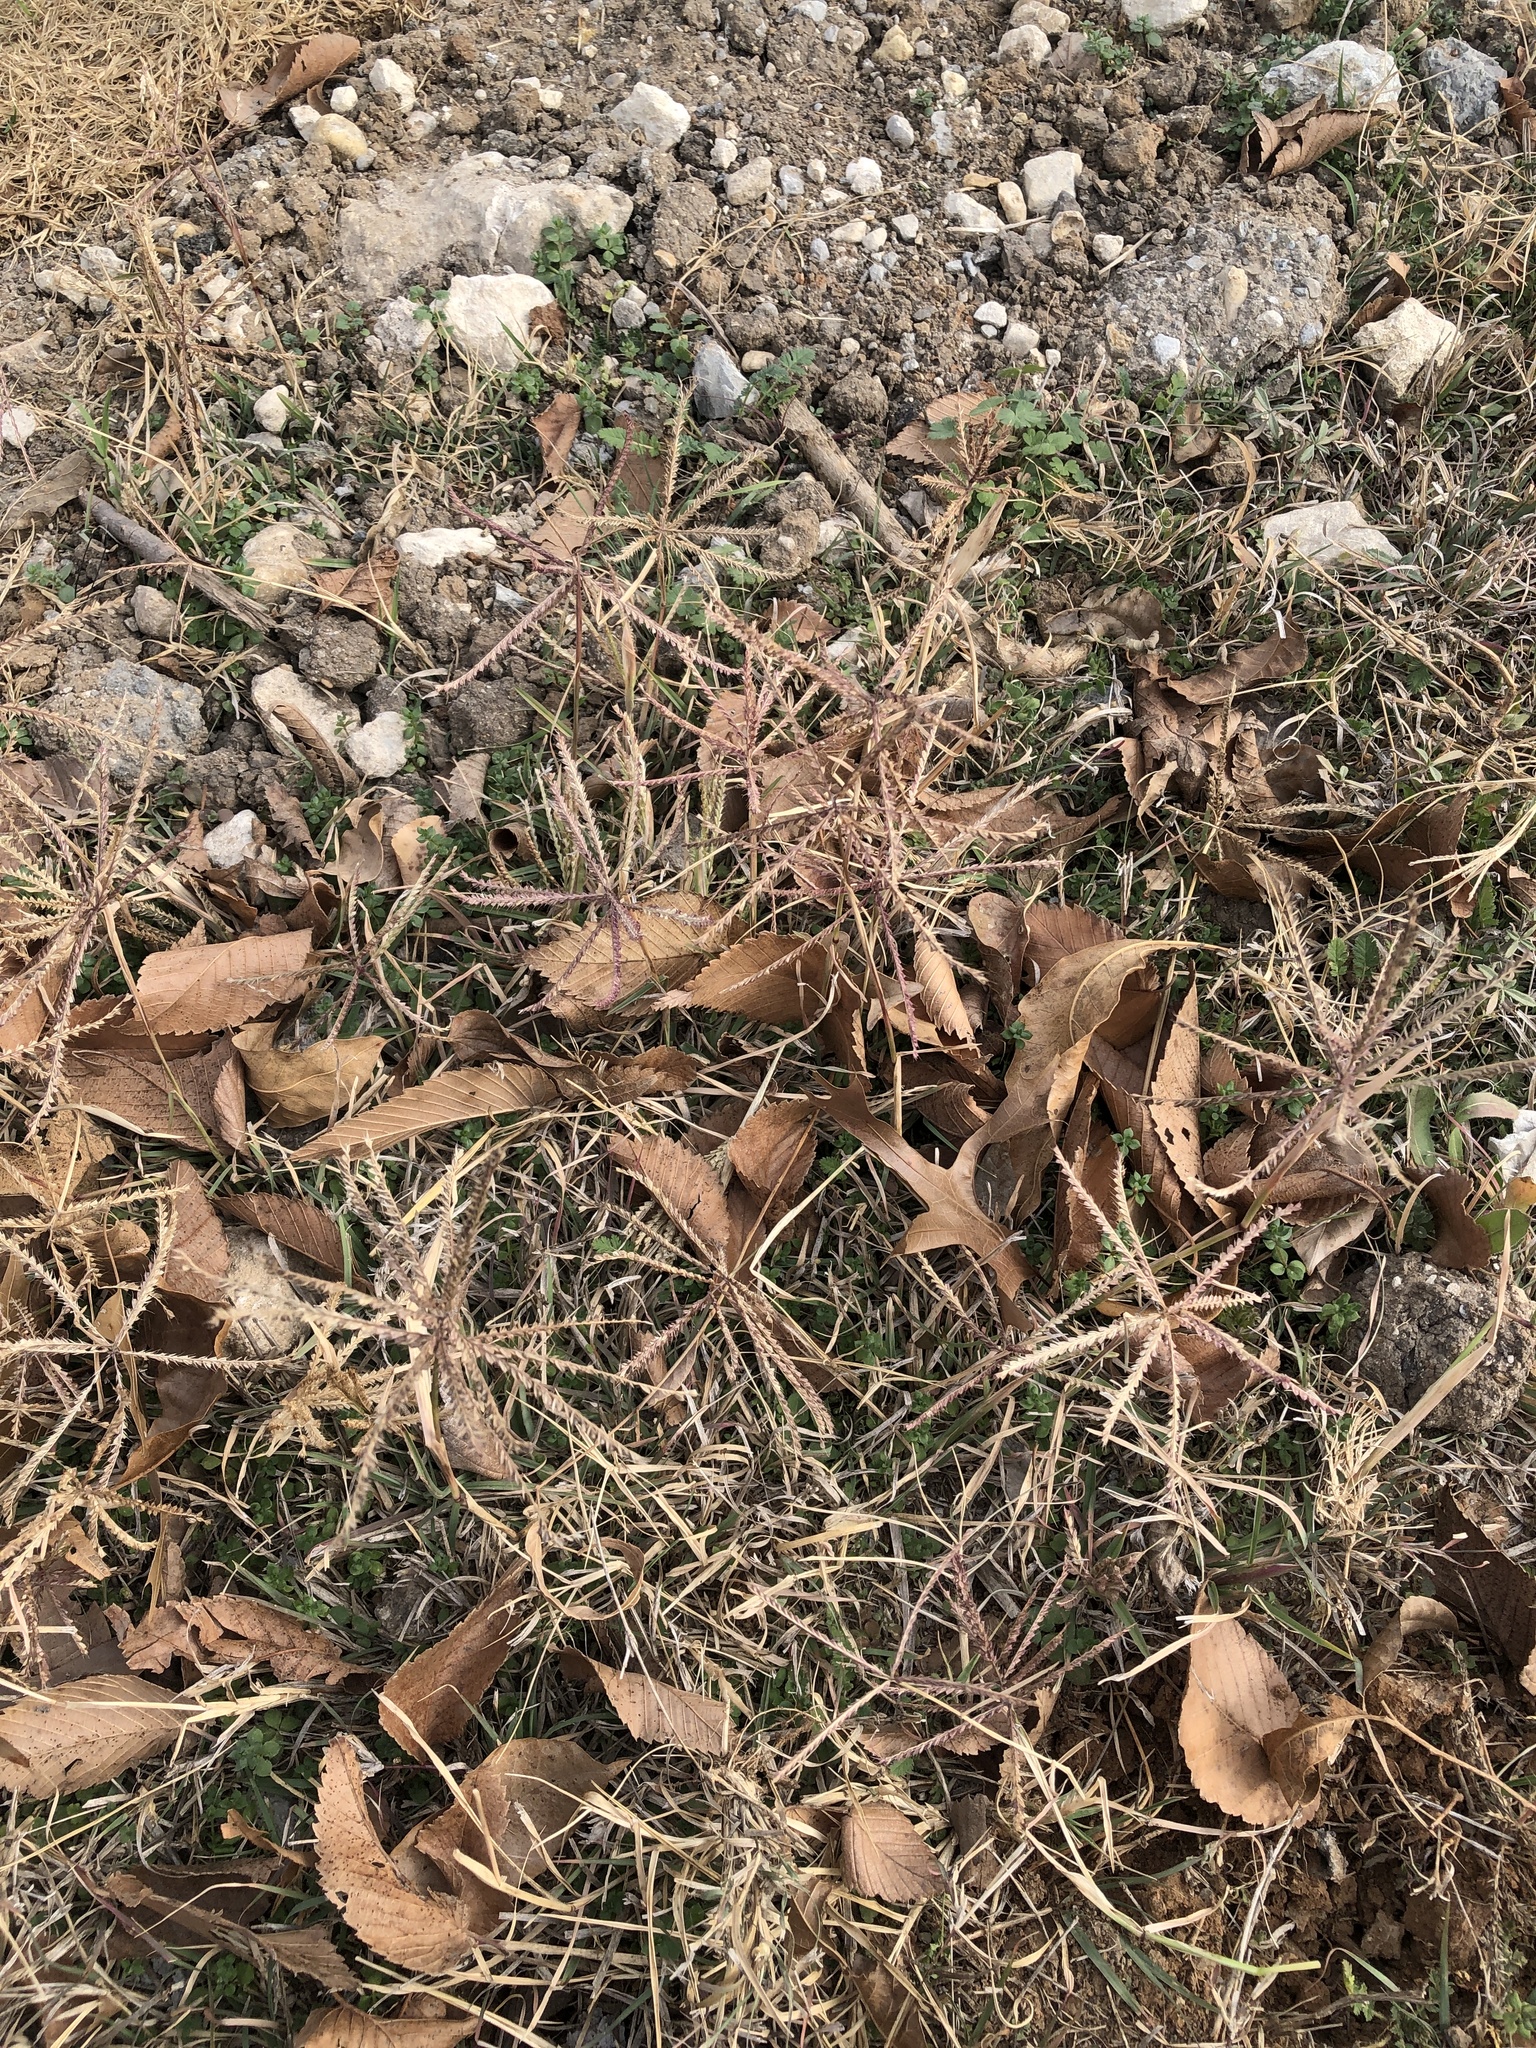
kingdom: Plantae
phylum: Tracheophyta
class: Liliopsida
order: Poales
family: Poaceae
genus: Chloris
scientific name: Chloris verticillata
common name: Tumble windmill grass
